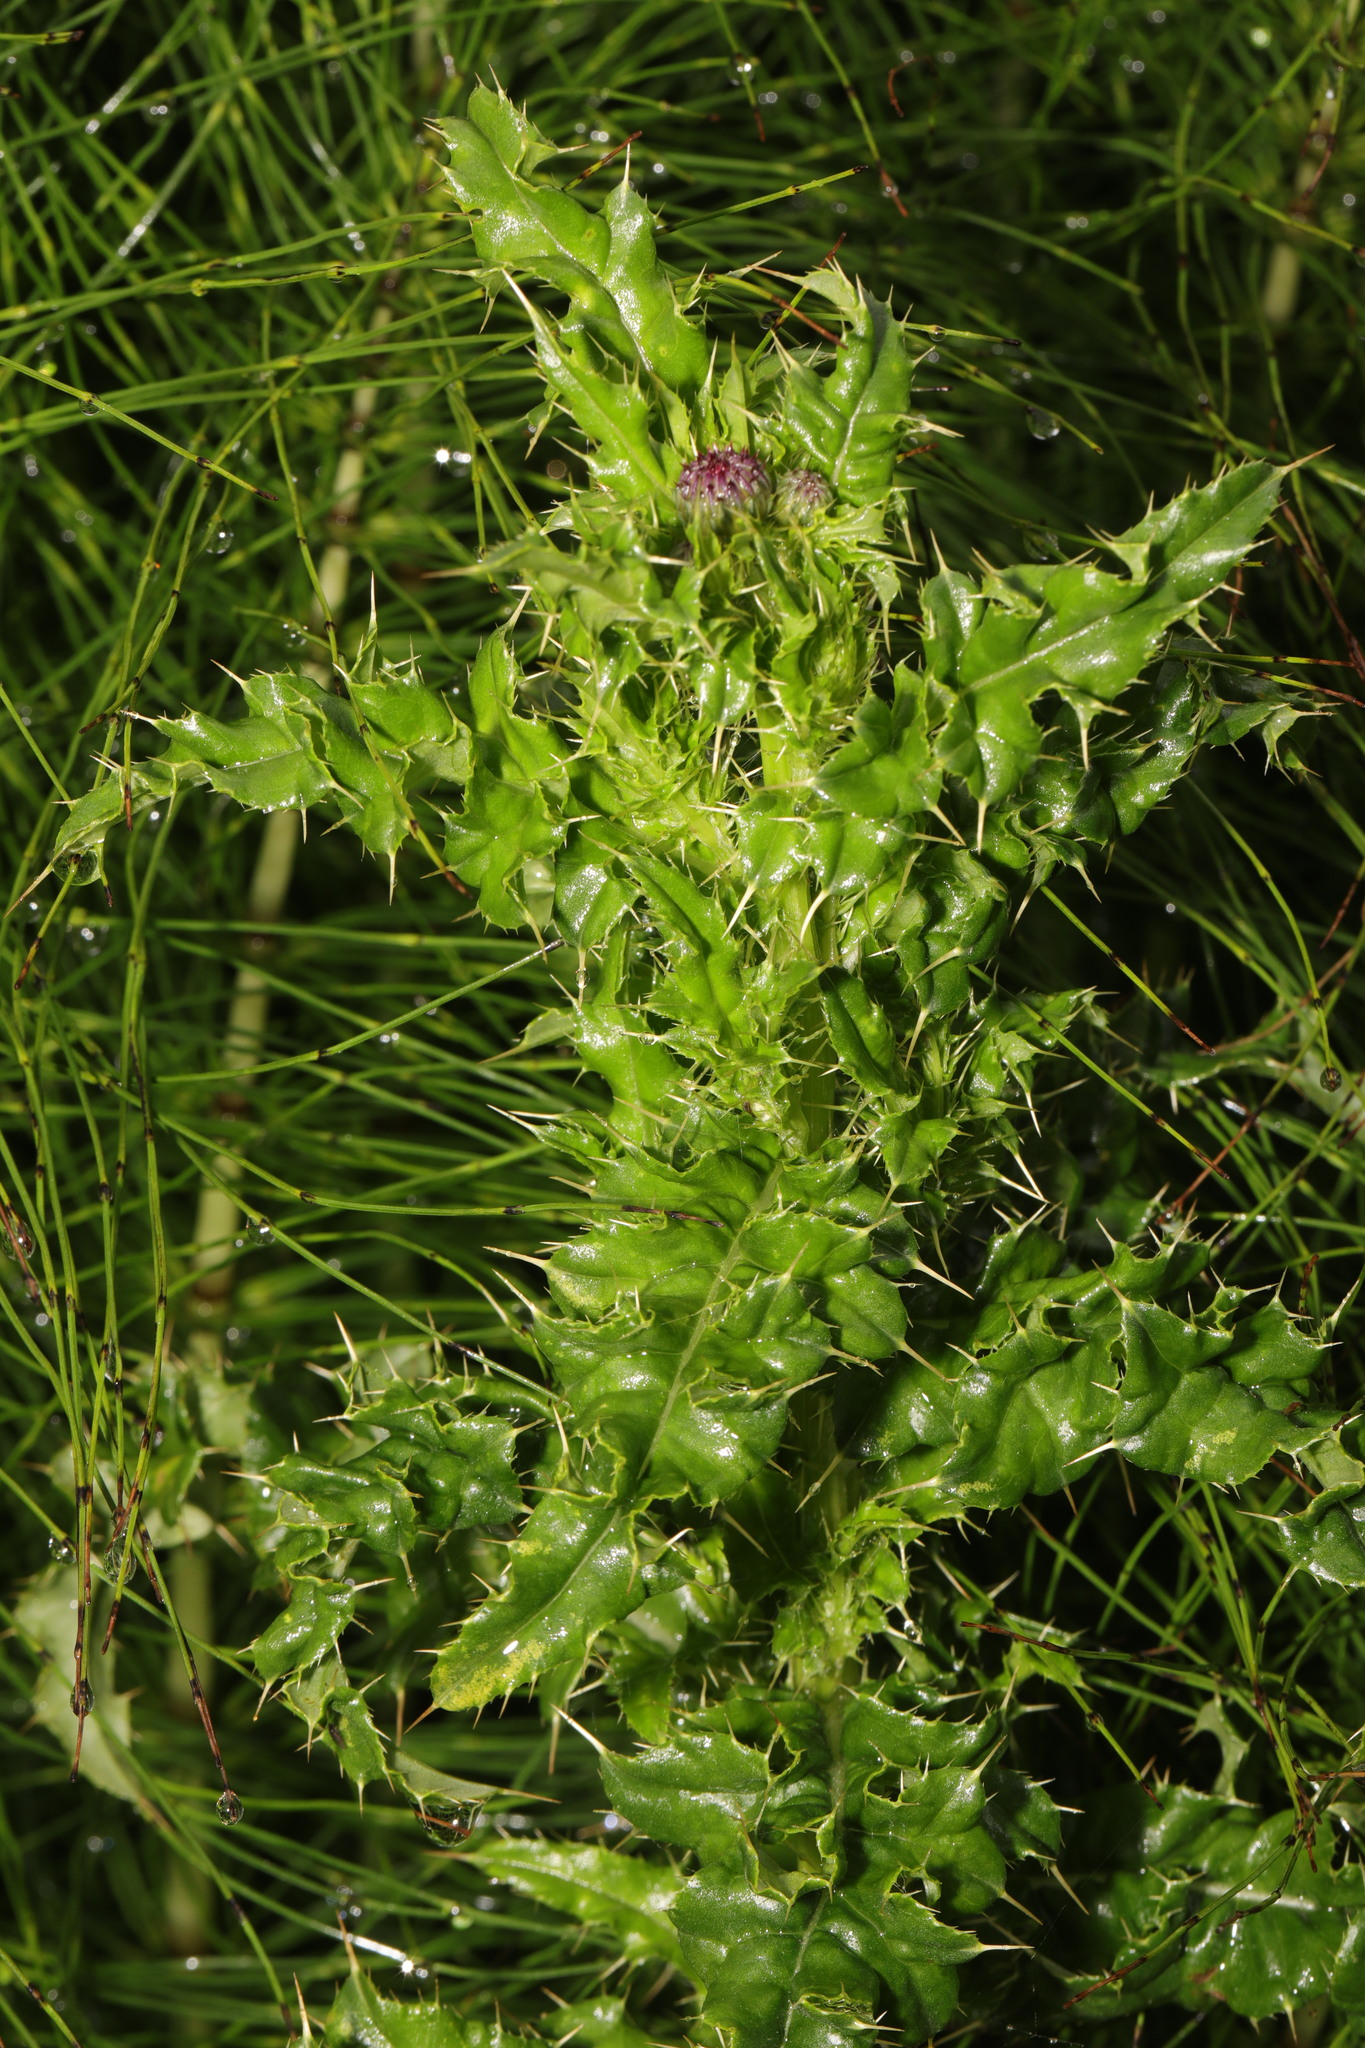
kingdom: Plantae
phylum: Tracheophyta
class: Magnoliopsida
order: Asterales
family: Asteraceae
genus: Cirsium
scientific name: Cirsium arvense
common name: Creeping thistle
